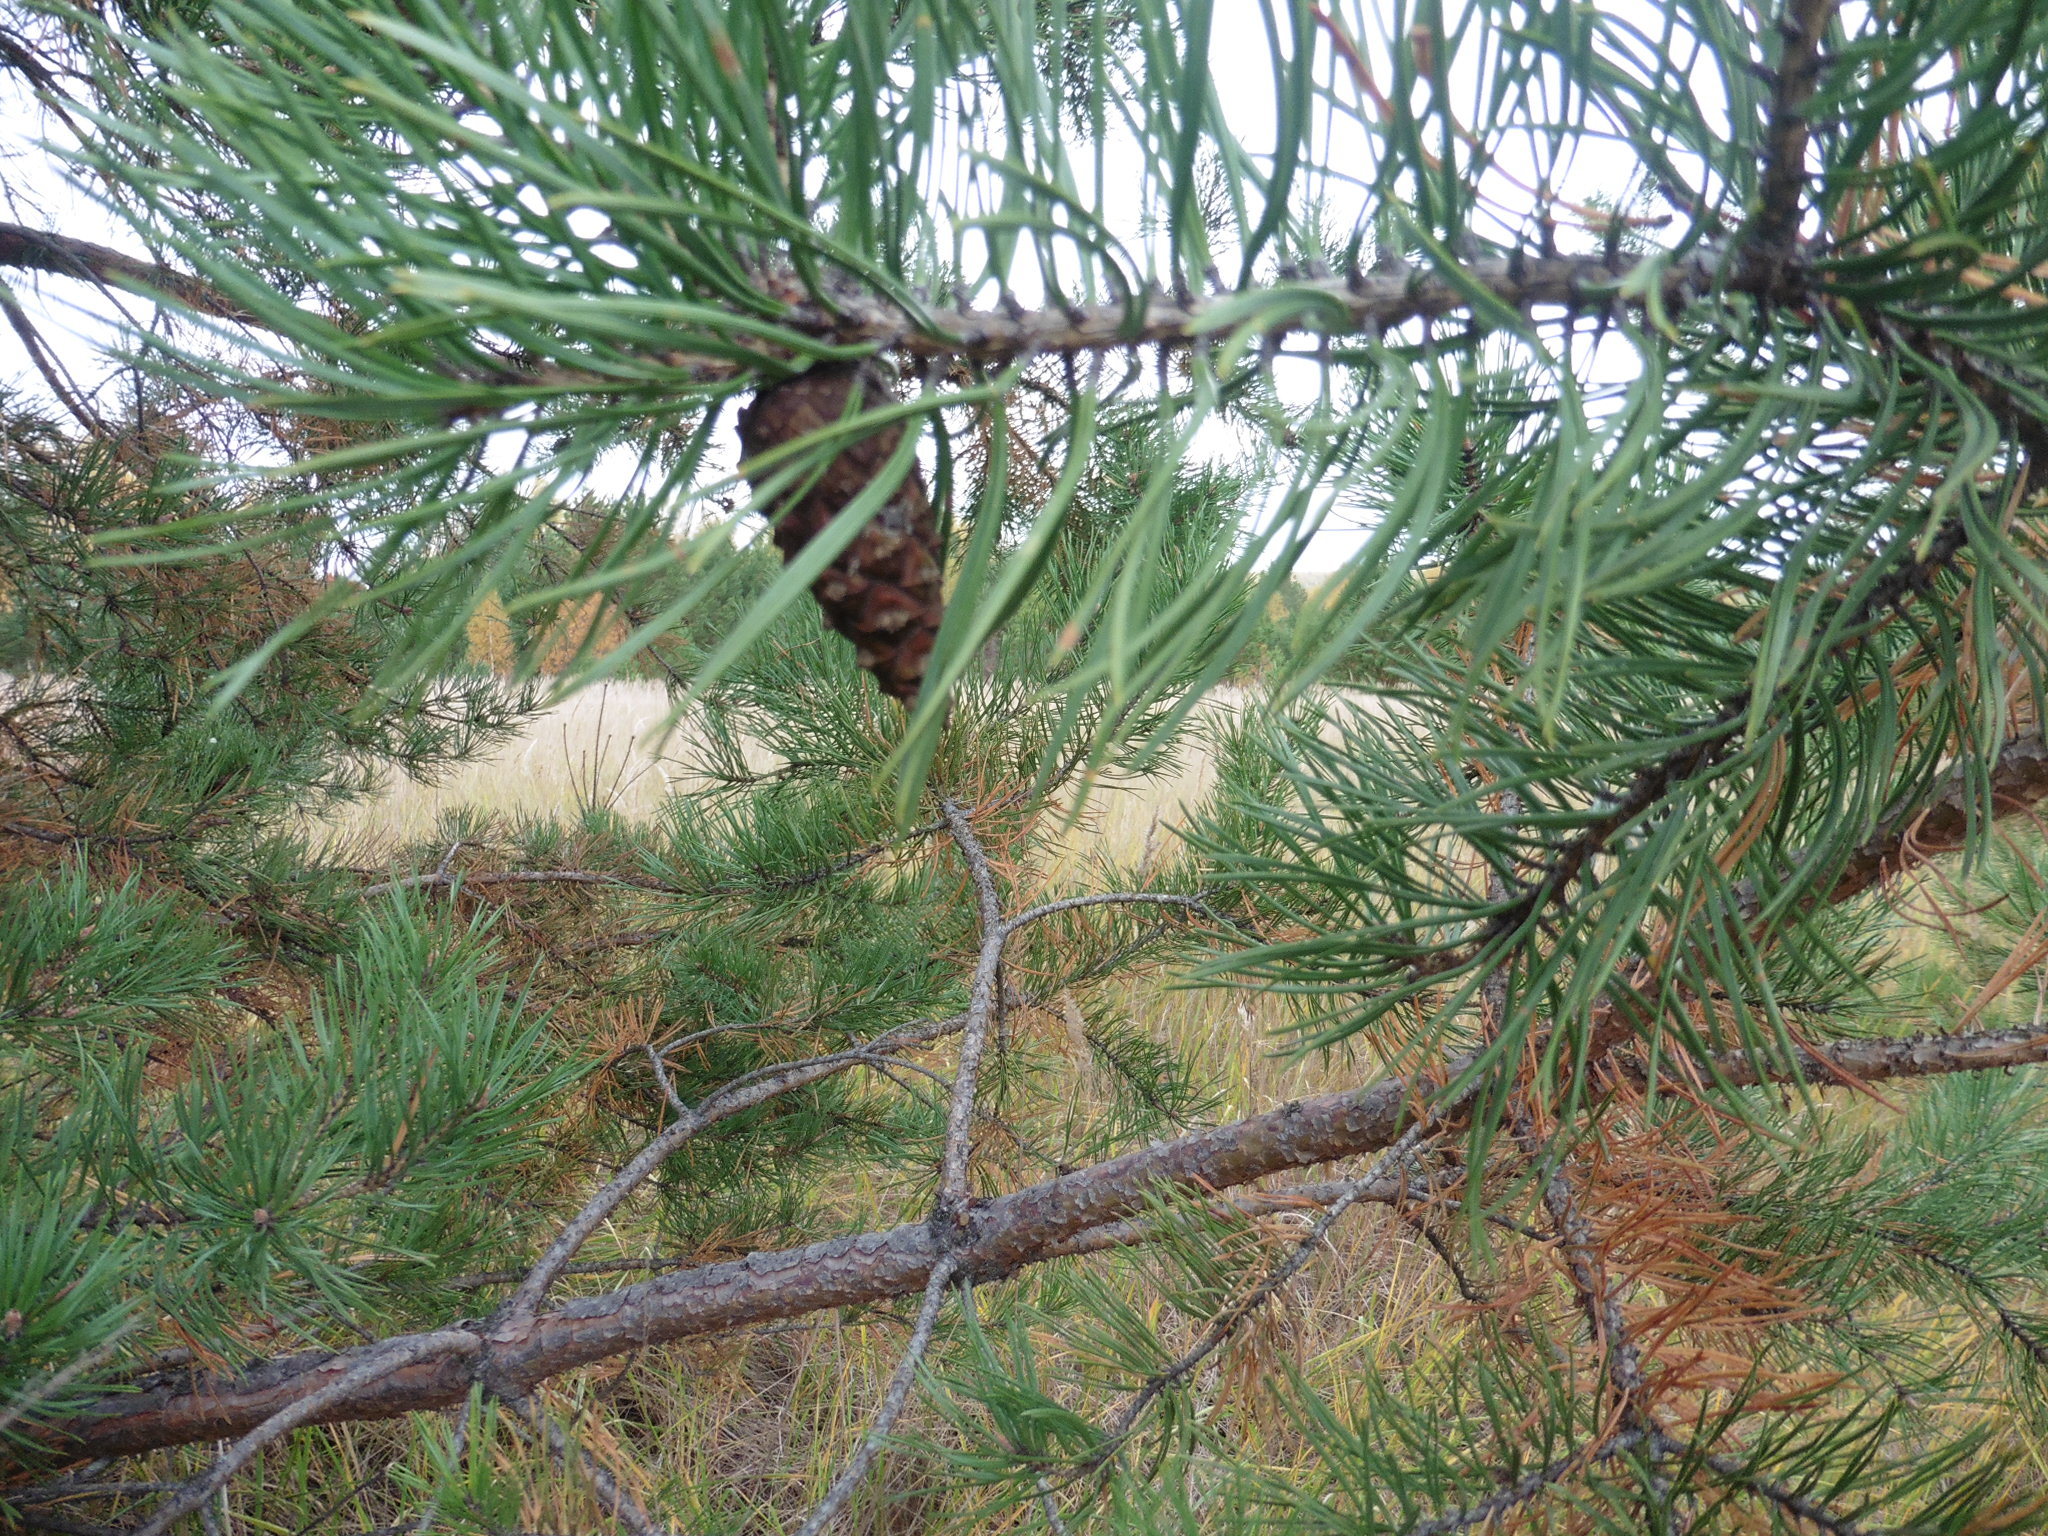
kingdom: Plantae
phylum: Tracheophyta
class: Pinopsida
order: Pinales
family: Pinaceae
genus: Pinus
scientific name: Pinus sylvestris
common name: Scots pine
